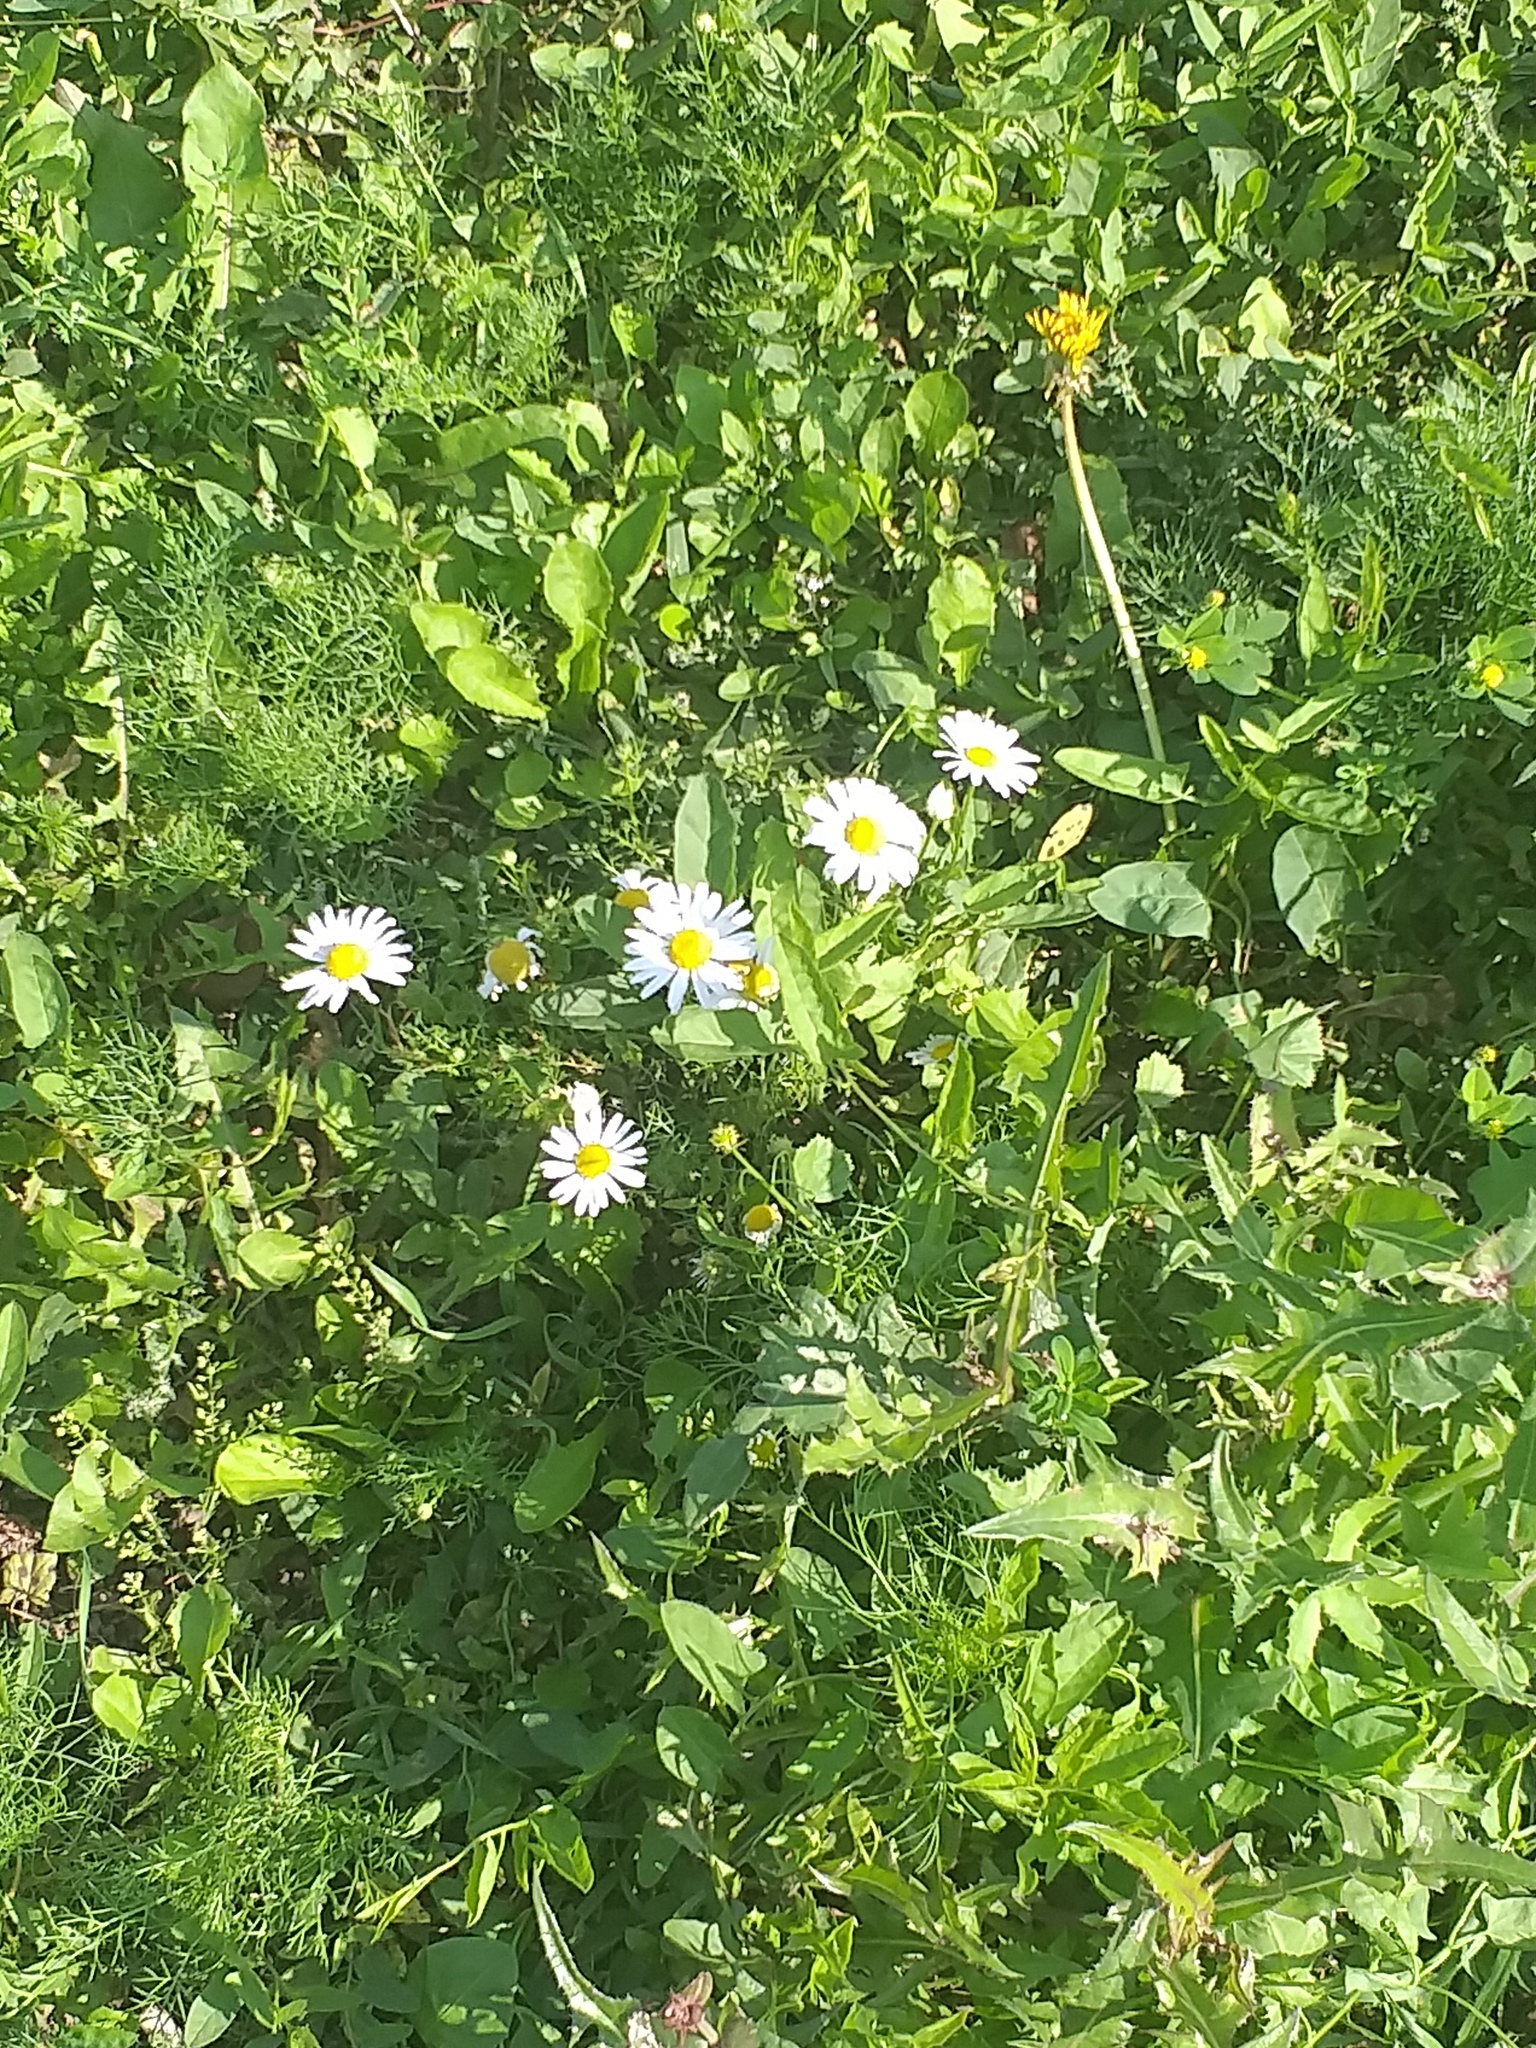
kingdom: Plantae
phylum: Tracheophyta
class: Magnoliopsida
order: Asterales
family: Asteraceae
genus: Tripleurospermum
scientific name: Tripleurospermum inodorum
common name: Scentless mayweed
